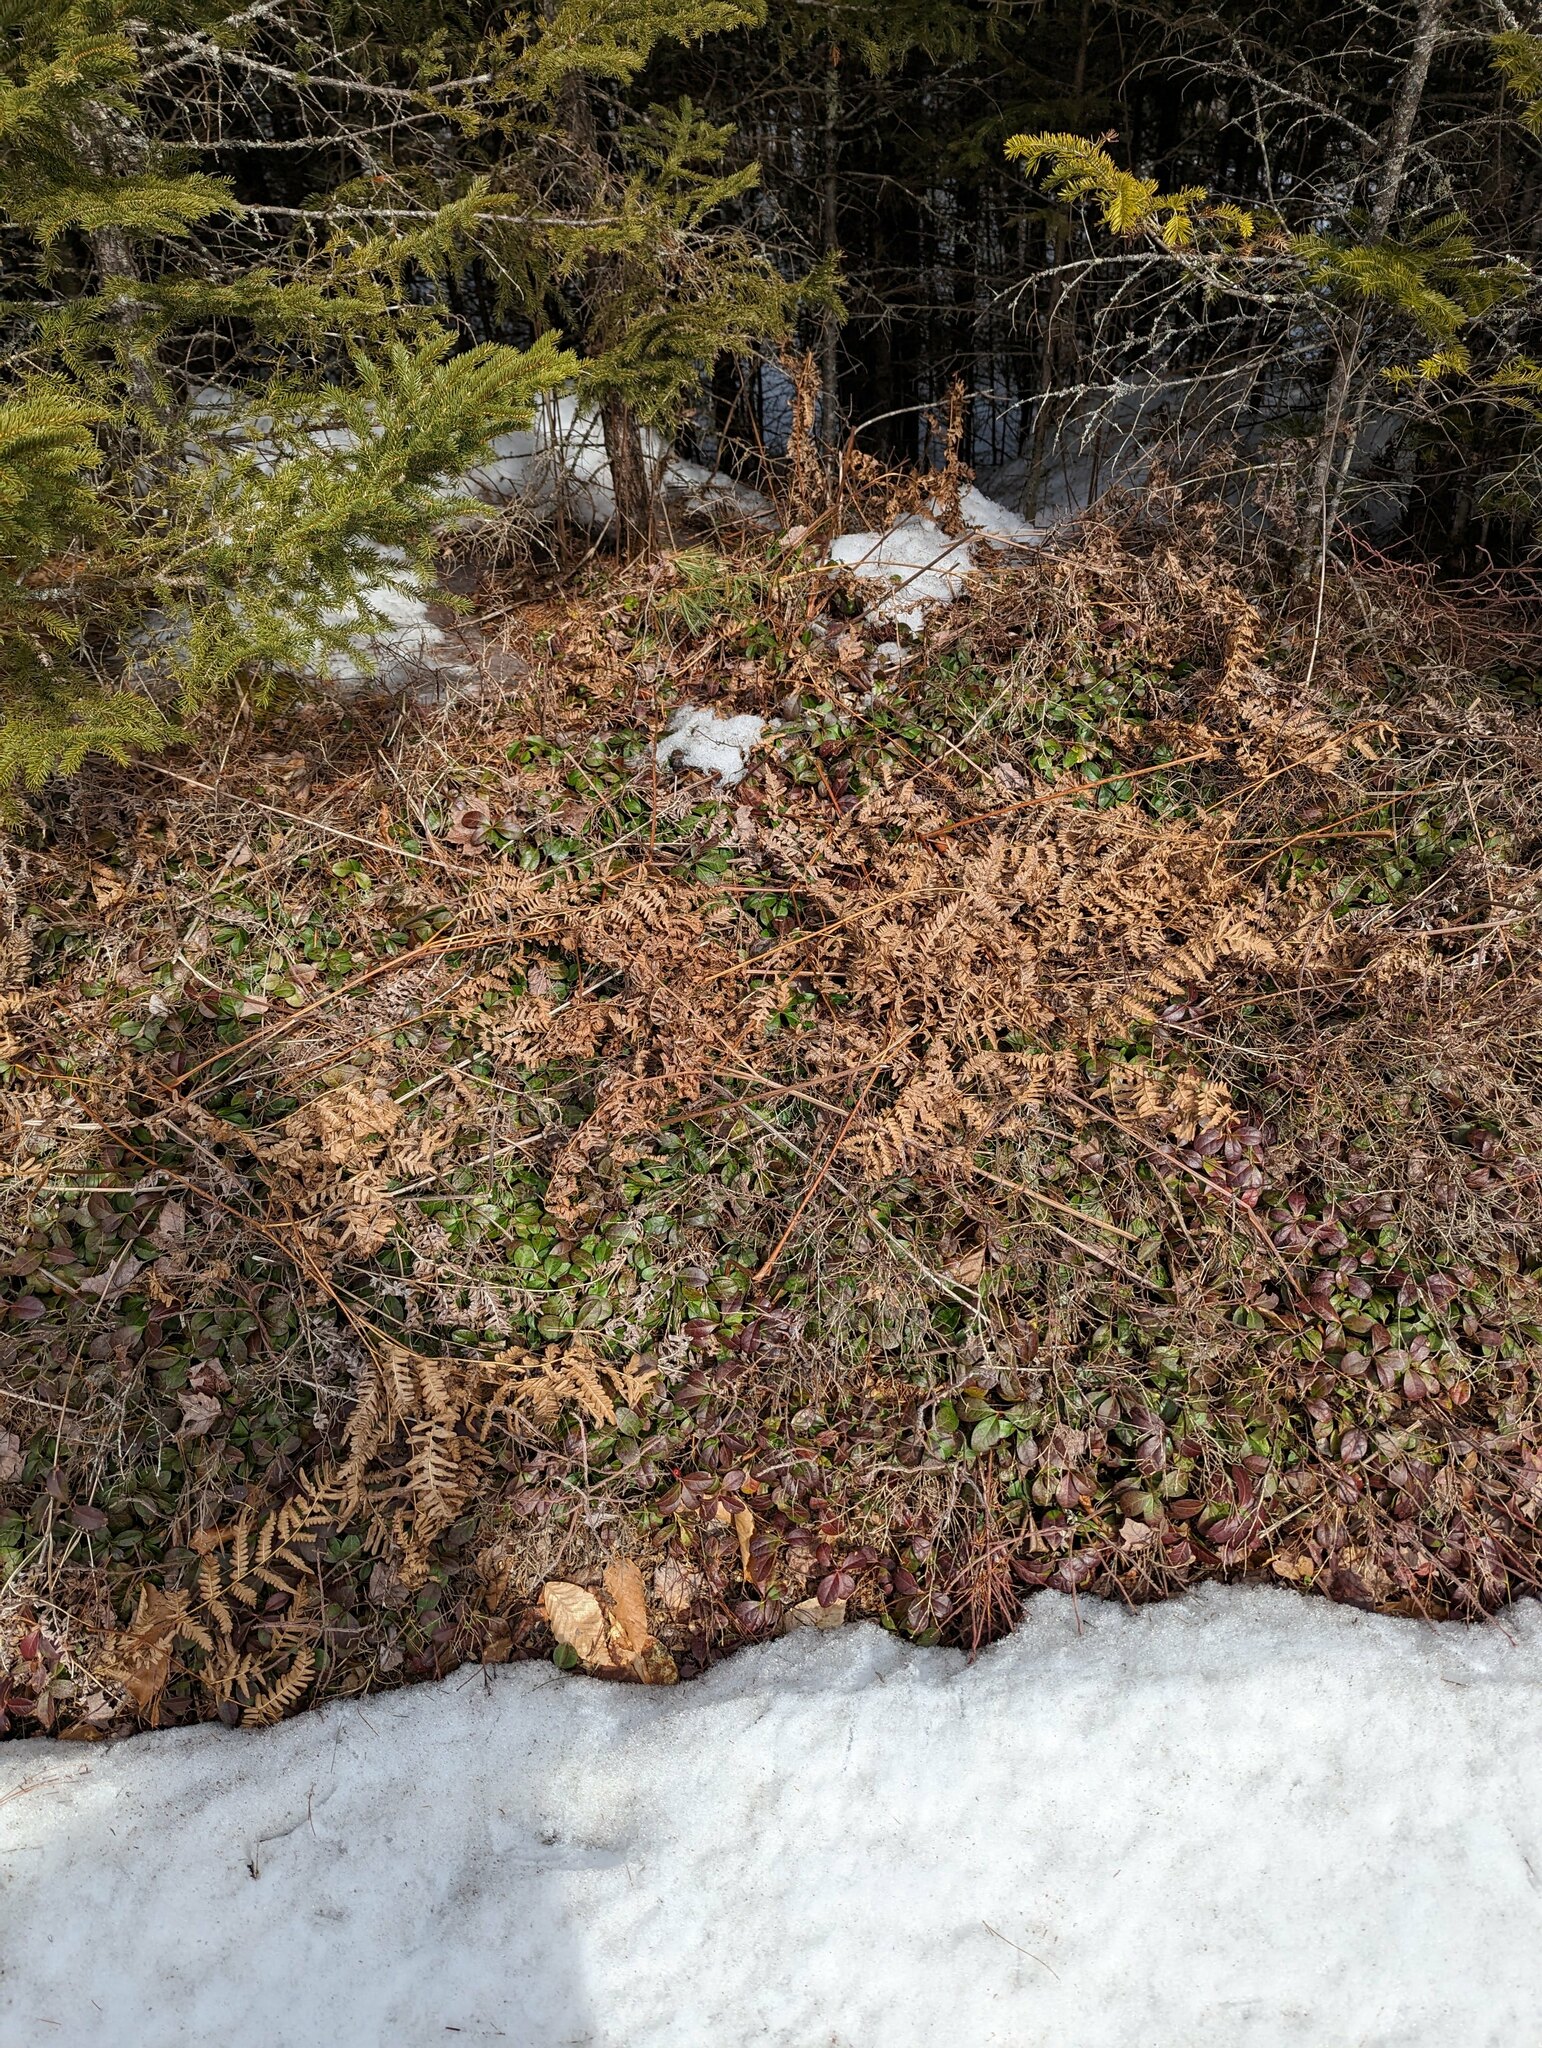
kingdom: Plantae
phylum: Tracheophyta
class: Magnoliopsida
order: Ericales
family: Ericaceae
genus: Gaultheria
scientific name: Gaultheria procumbens
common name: Checkerberry
